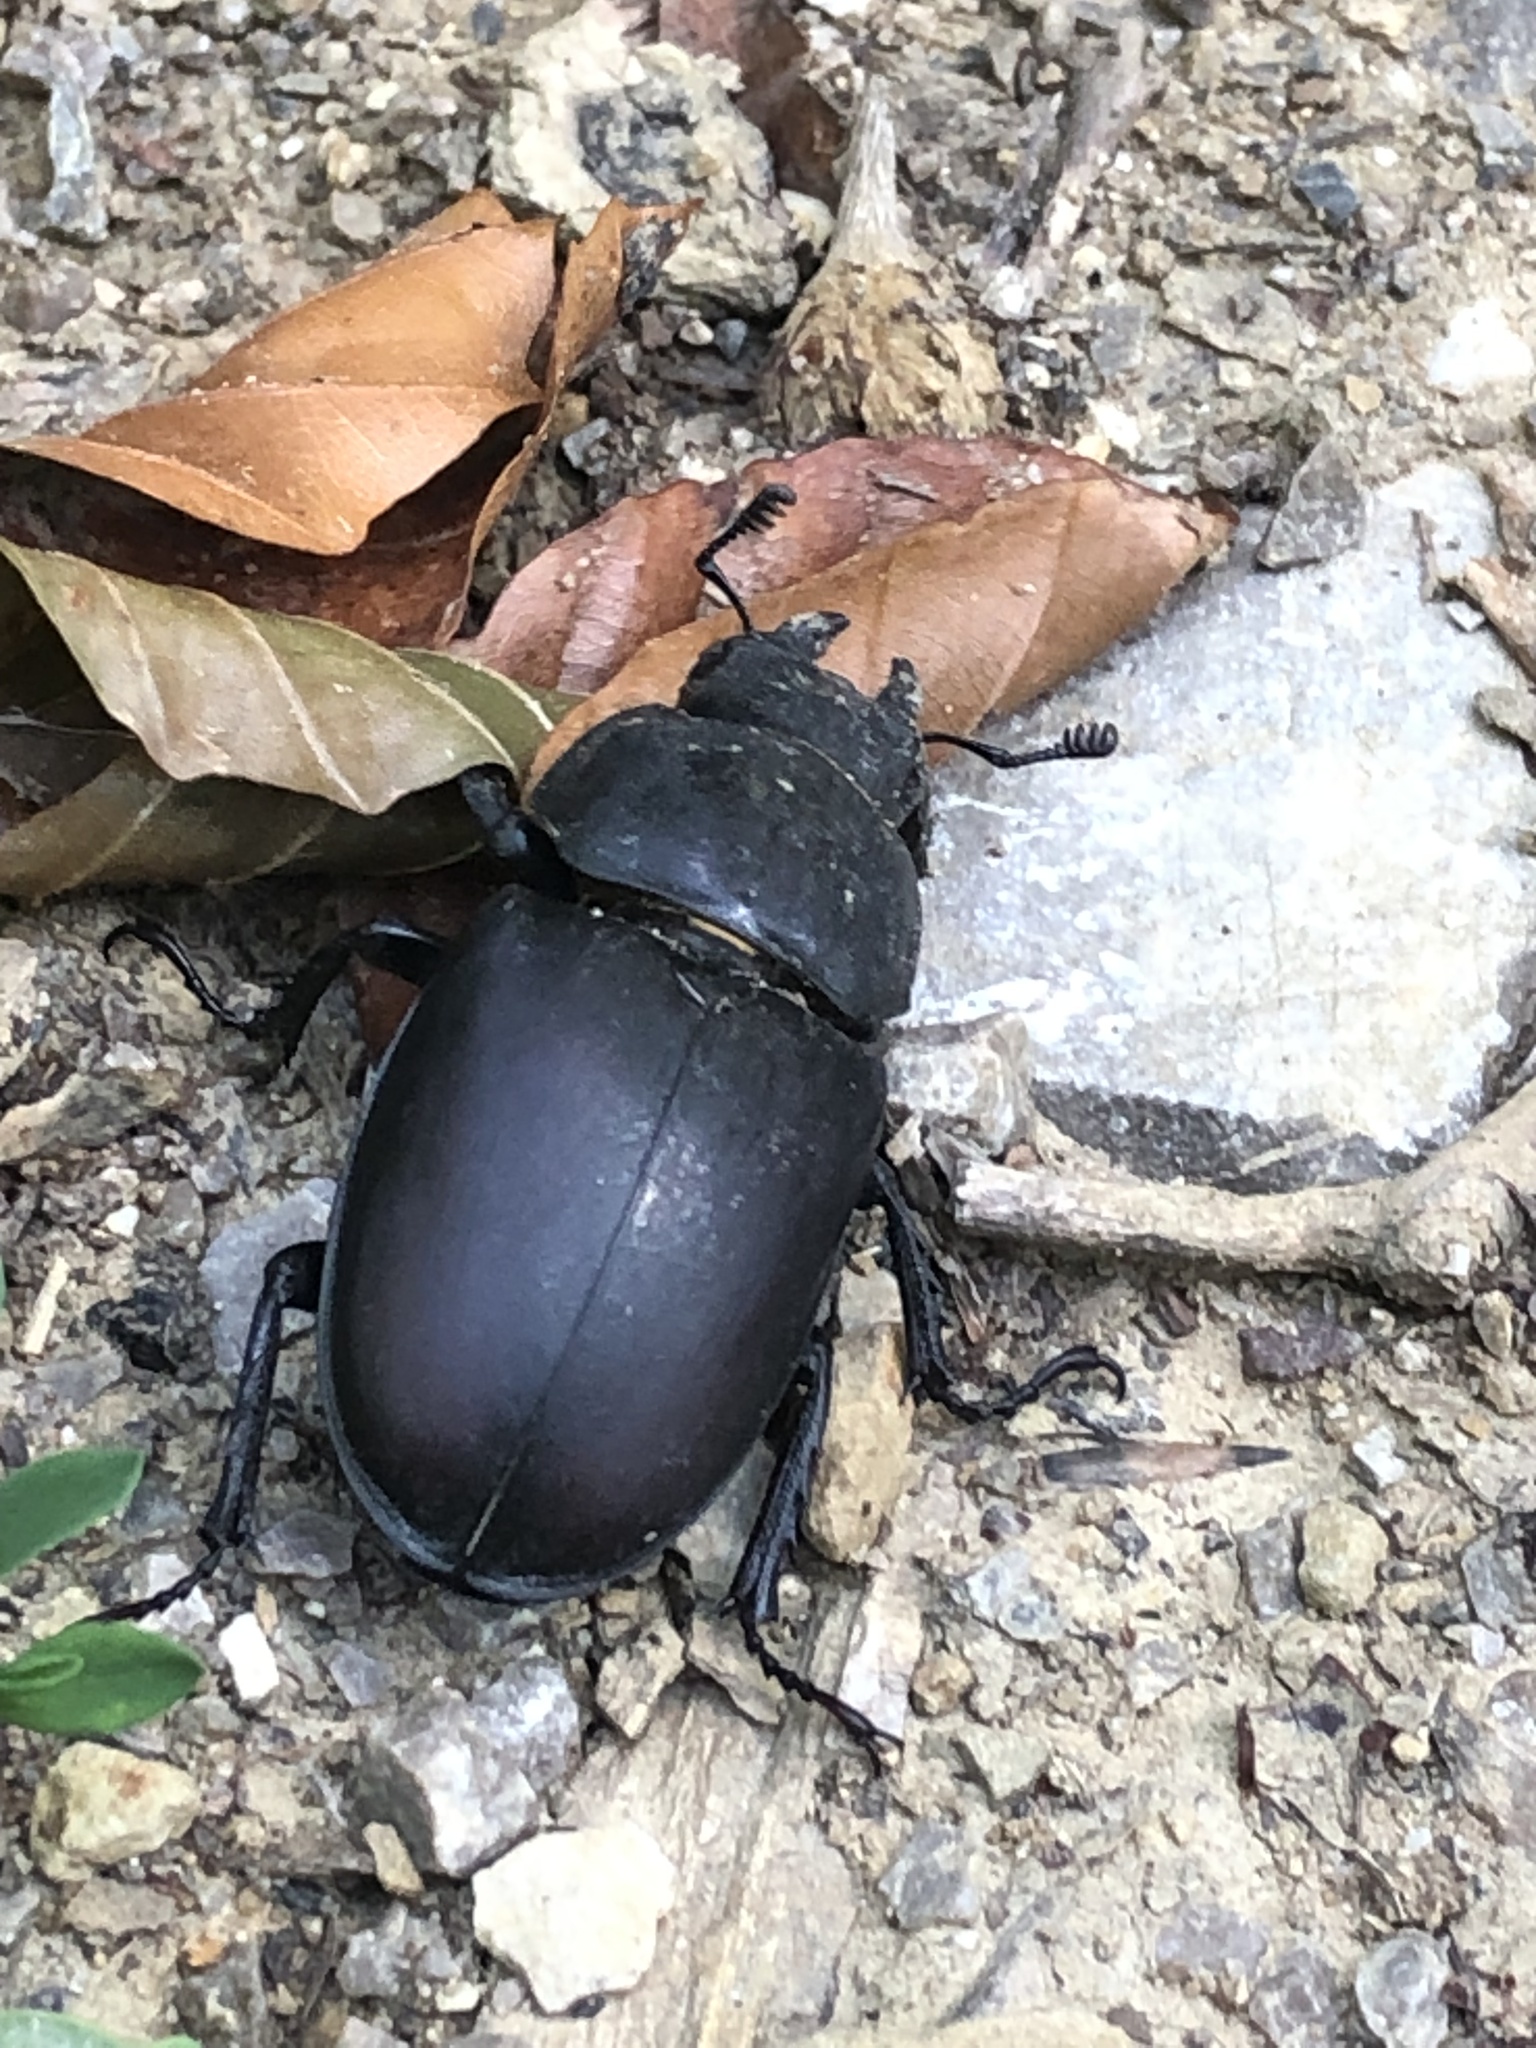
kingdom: Animalia
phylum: Arthropoda
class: Insecta
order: Coleoptera
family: Lucanidae
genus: Lucanus
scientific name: Lucanus cervus
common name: Stag beetle
